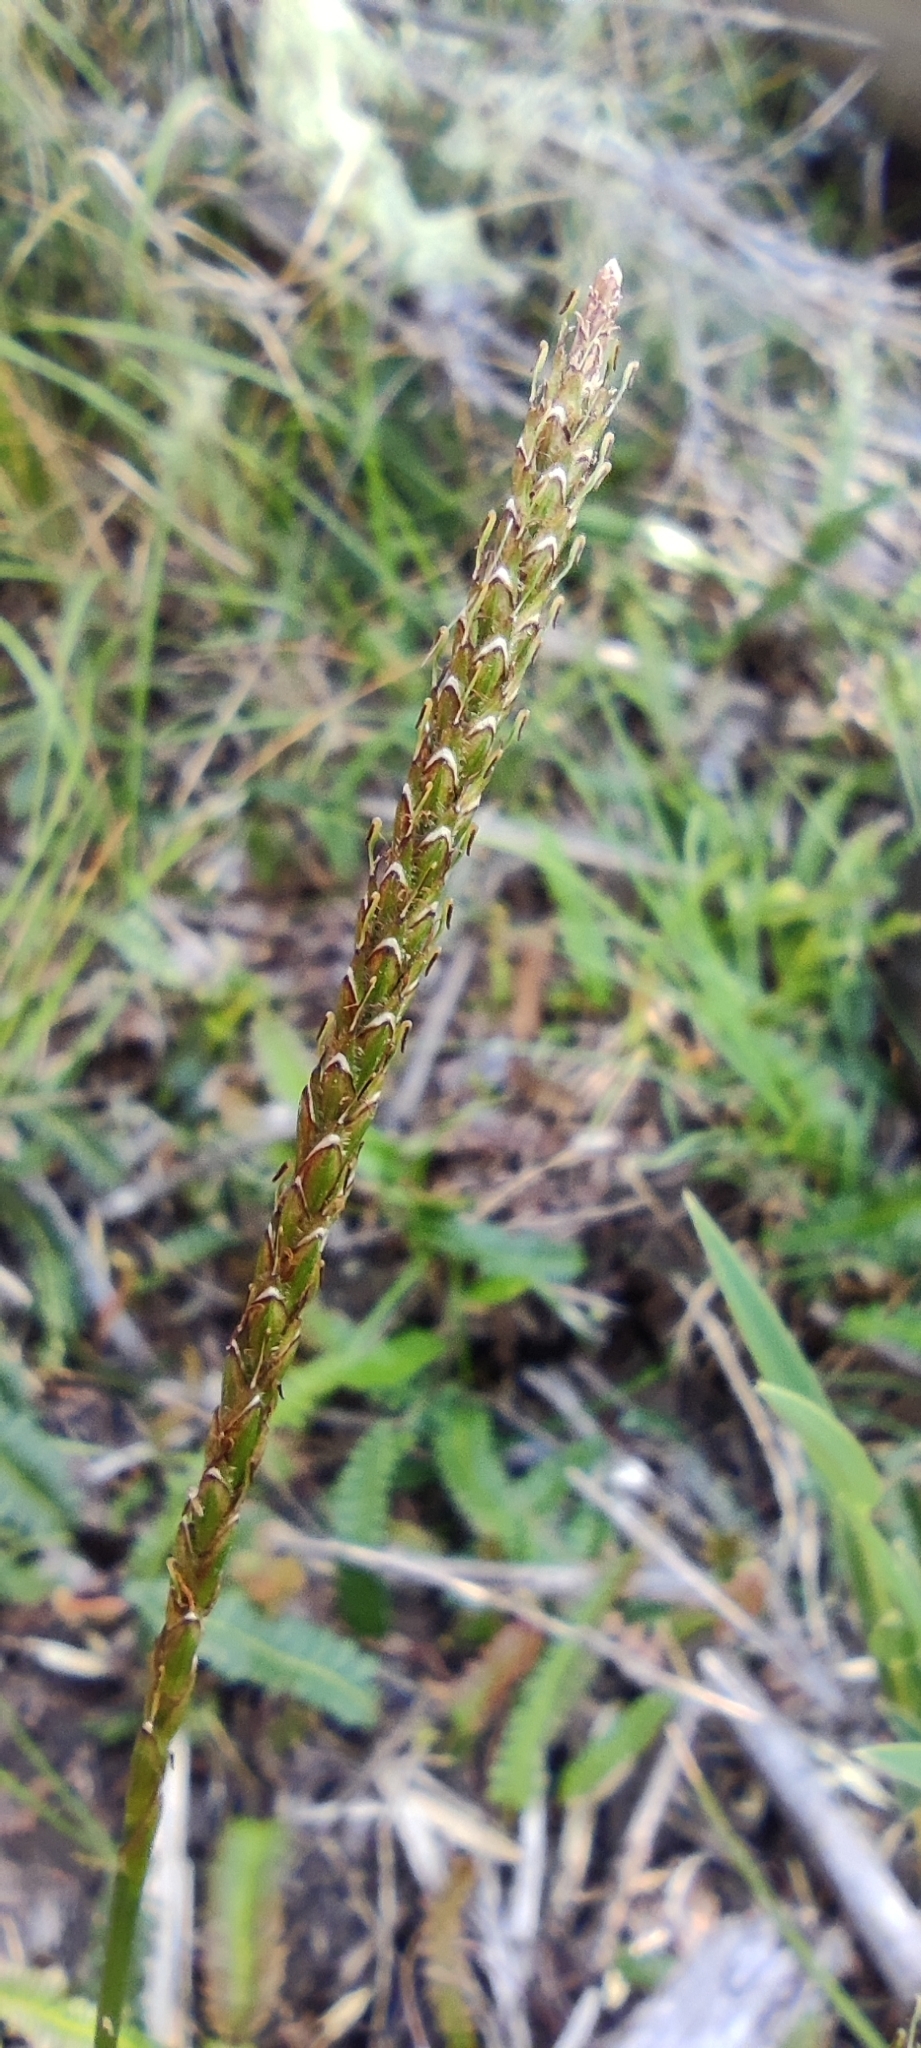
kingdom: Plantae
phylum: Tracheophyta
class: Liliopsida
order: Poales
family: Cyperaceae
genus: Carex
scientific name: Carex delacosta
